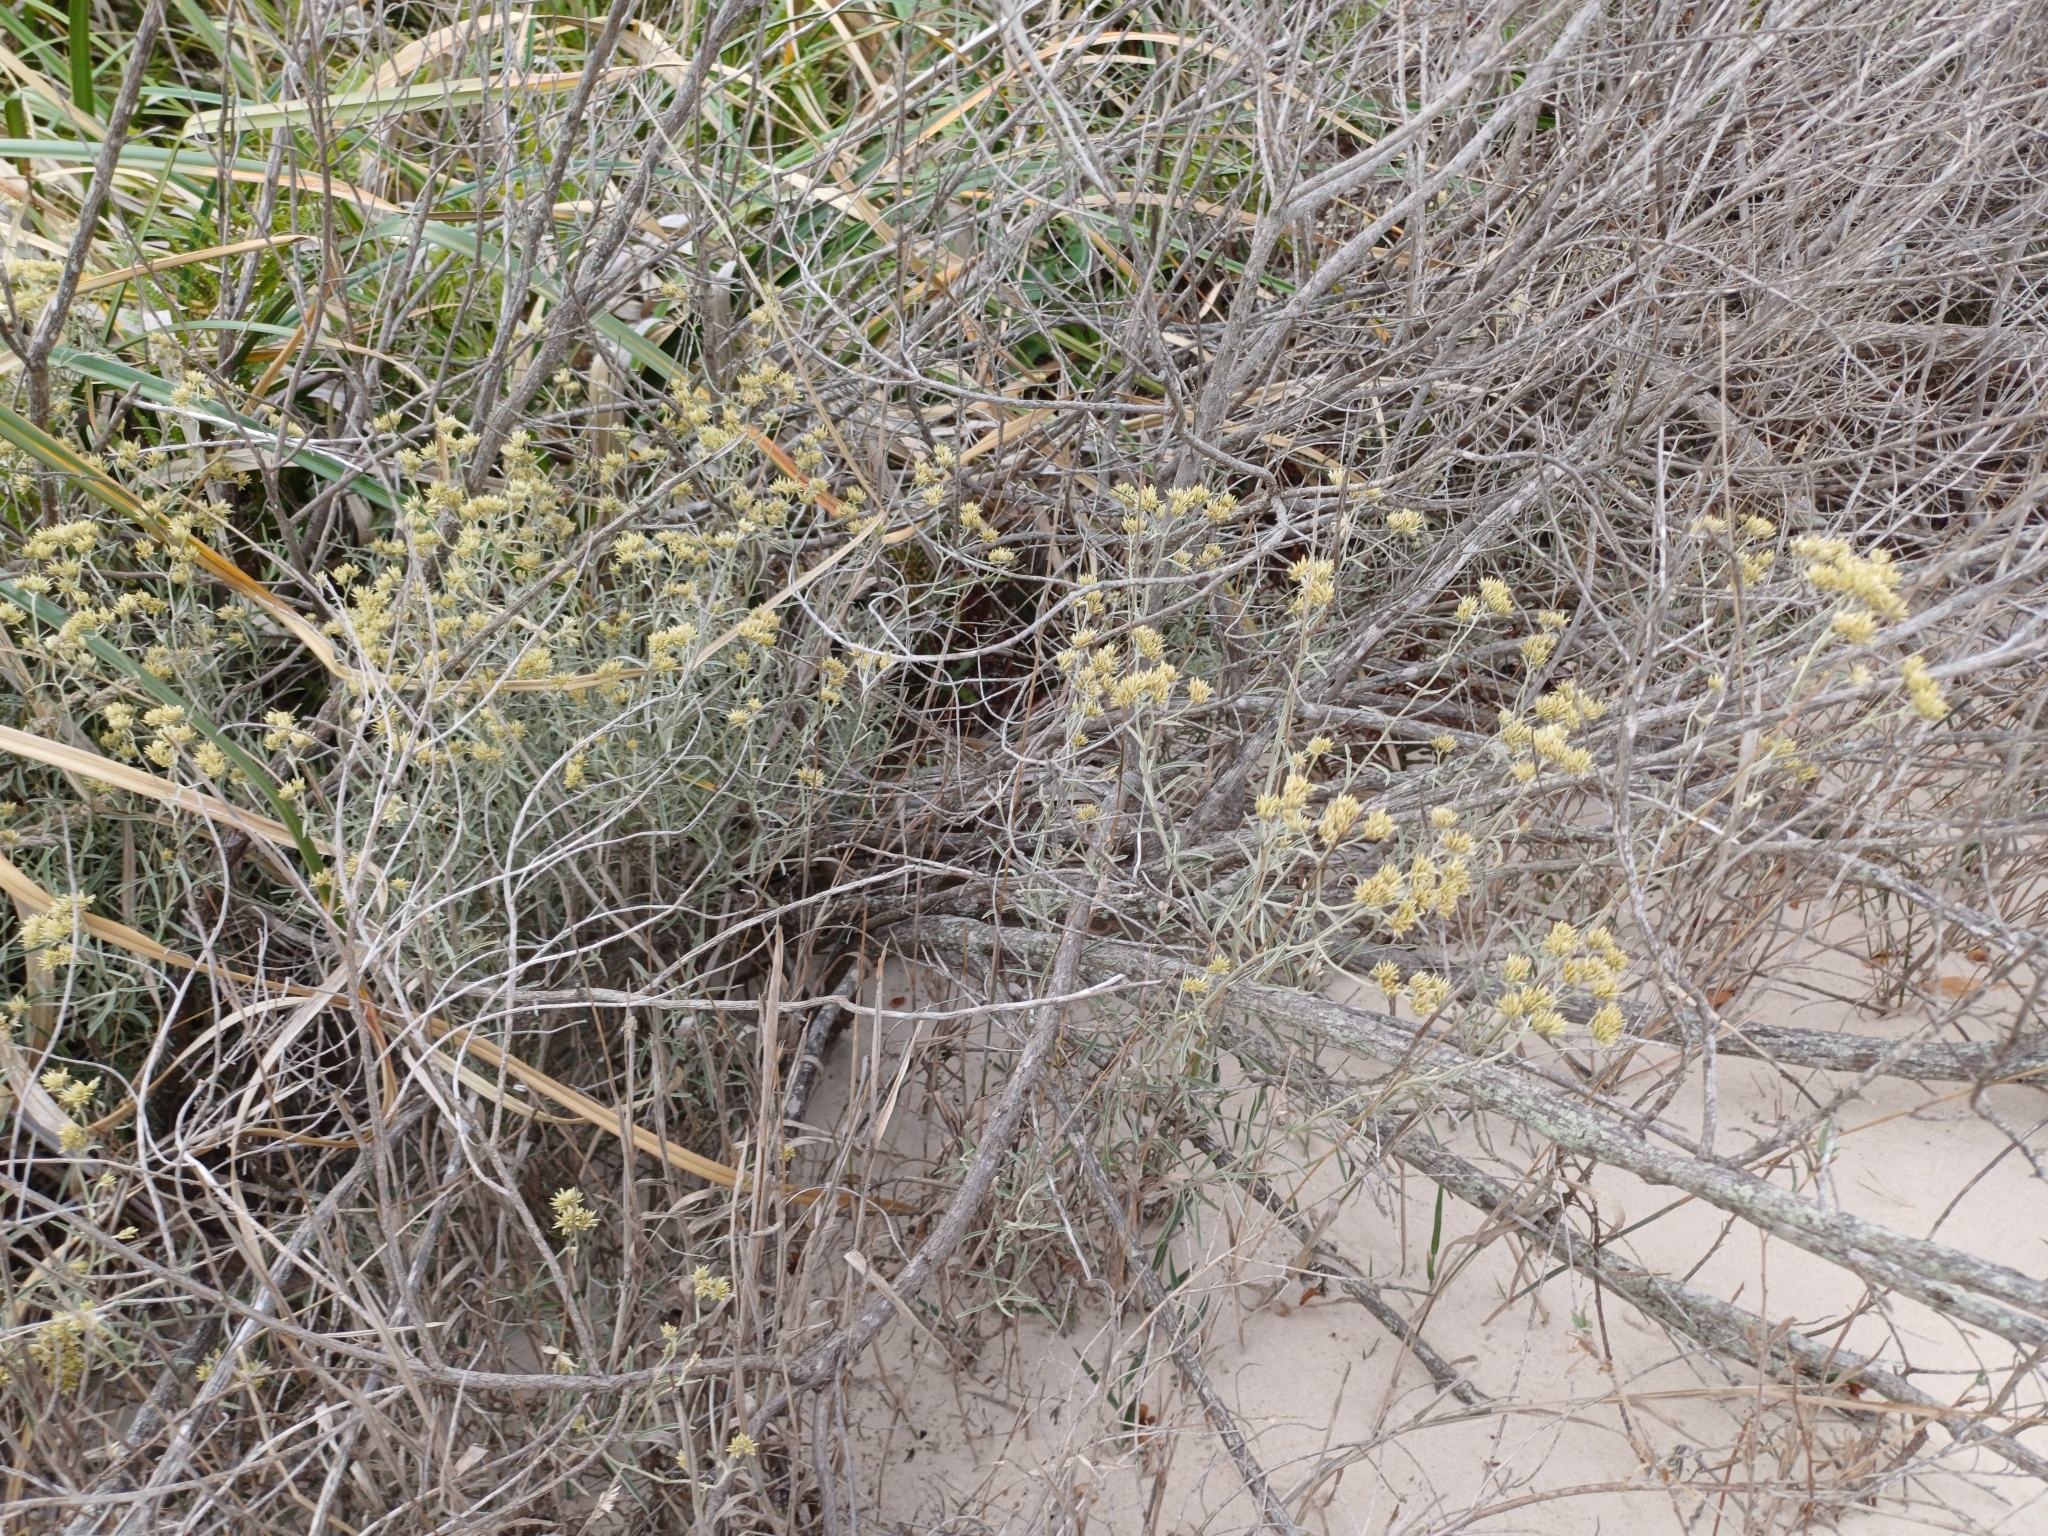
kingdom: Plantae
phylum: Tracheophyta
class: Magnoliopsida
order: Asterales
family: Asteraceae
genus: Achyrocline
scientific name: Achyrocline satureioides
